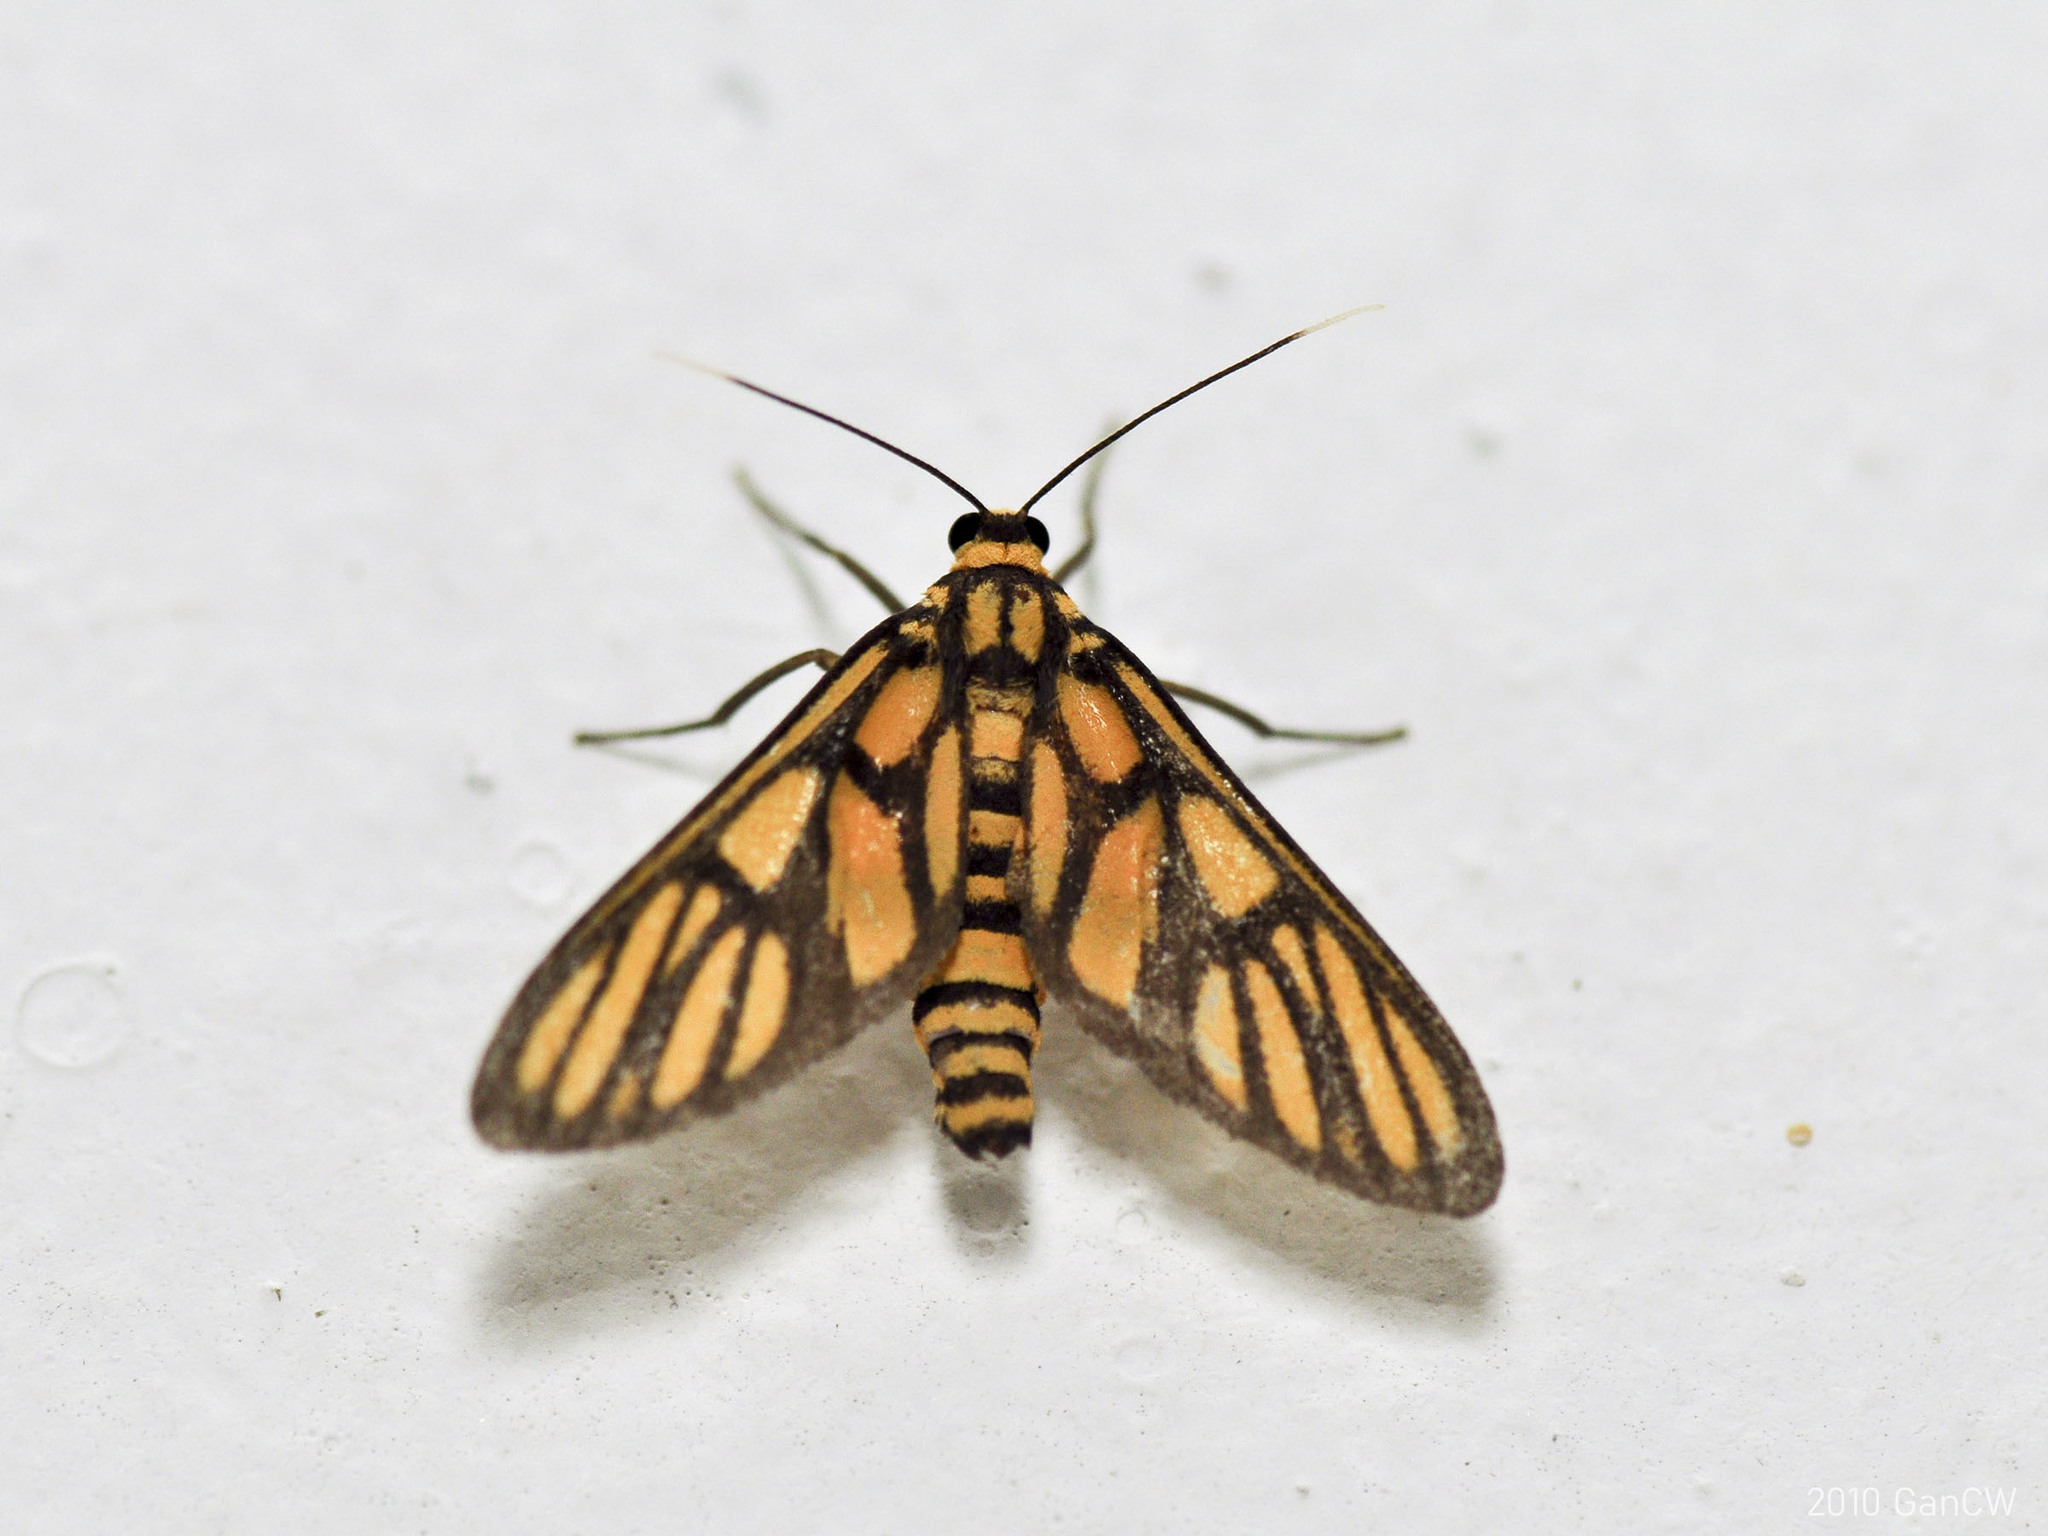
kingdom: Animalia
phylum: Arthropoda
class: Insecta
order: Lepidoptera
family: Erebidae
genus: Amata
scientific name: Amata dilatata
